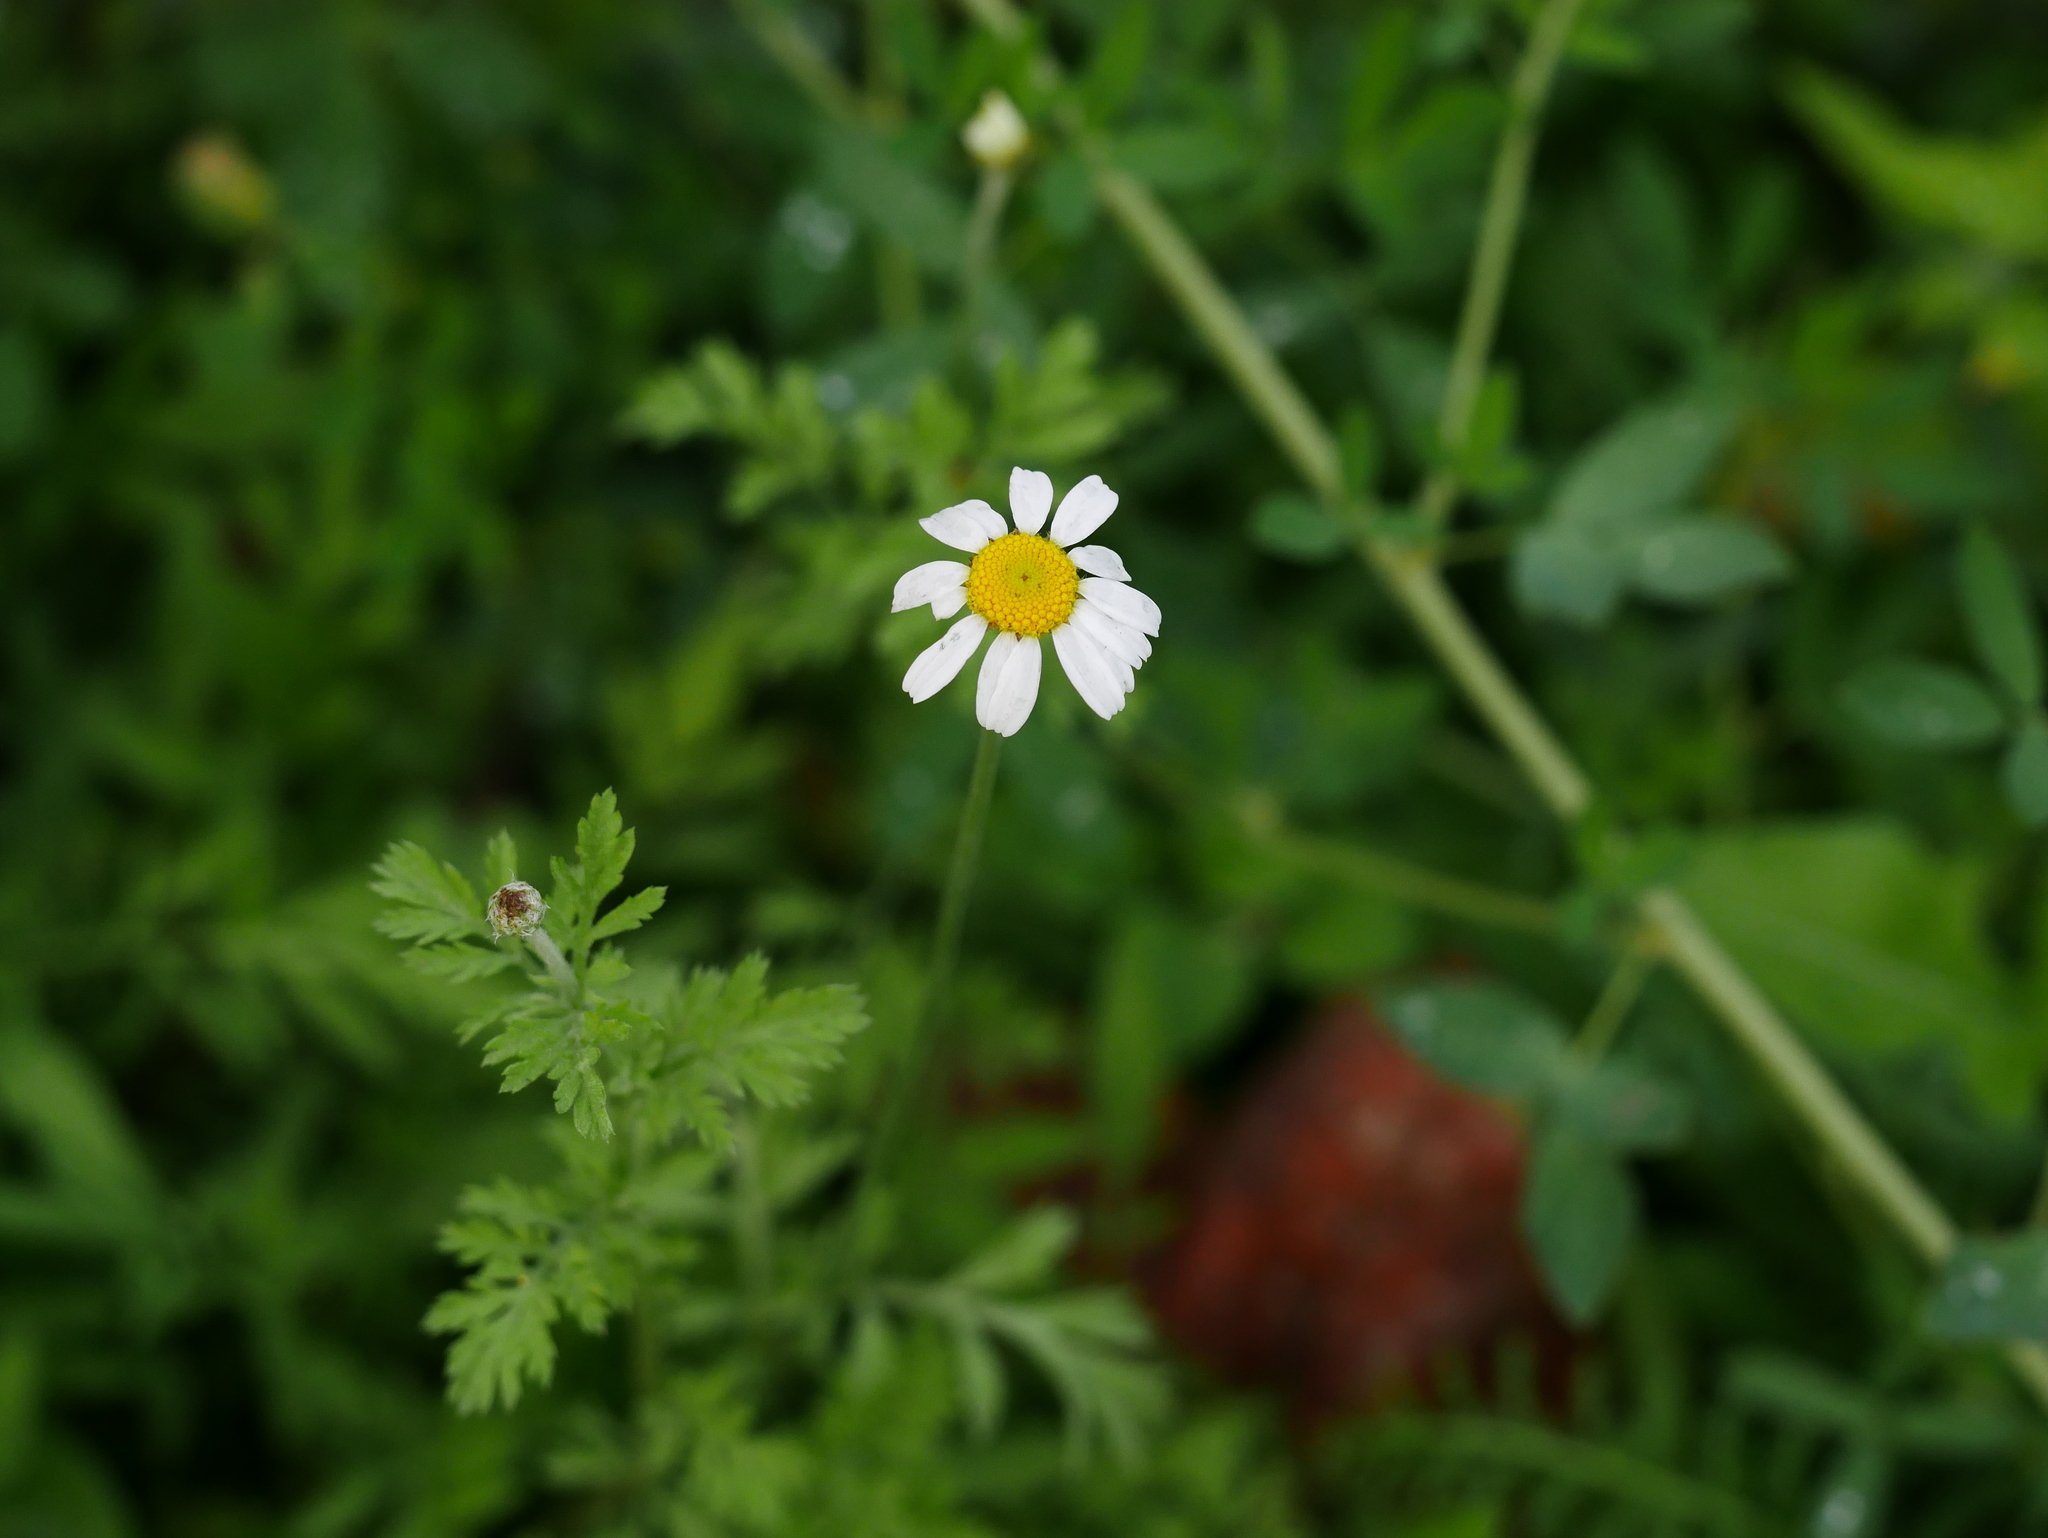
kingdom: Plantae
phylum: Tracheophyta
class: Magnoliopsida
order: Asterales
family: Asteraceae
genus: Tanacetum
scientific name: Tanacetum parthenium
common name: Feverfew
